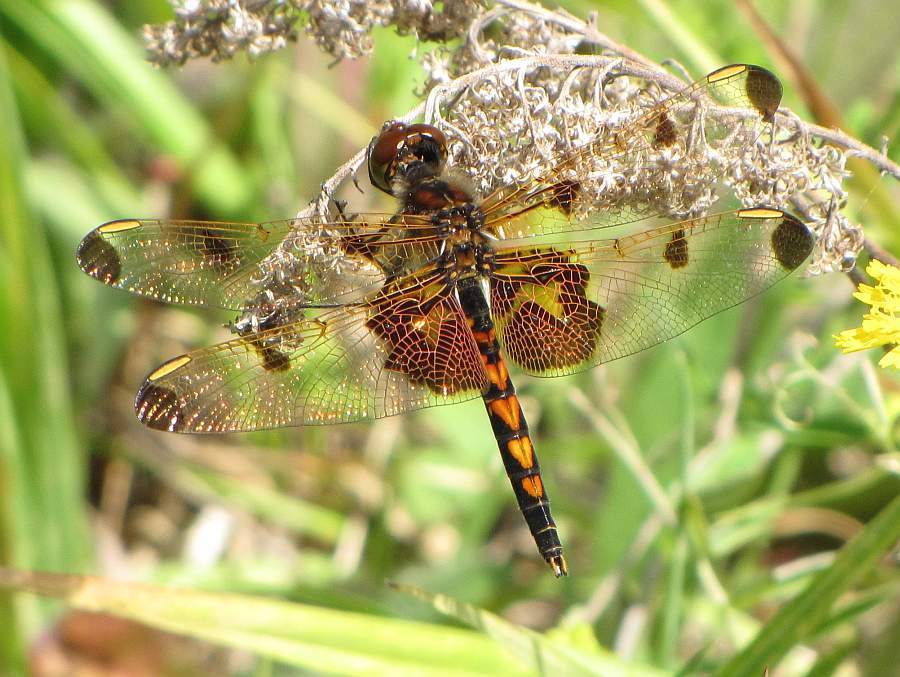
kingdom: Animalia
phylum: Arthropoda
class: Insecta
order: Odonata
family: Libellulidae
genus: Celithemis
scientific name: Celithemis elisa
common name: Calico pennant
